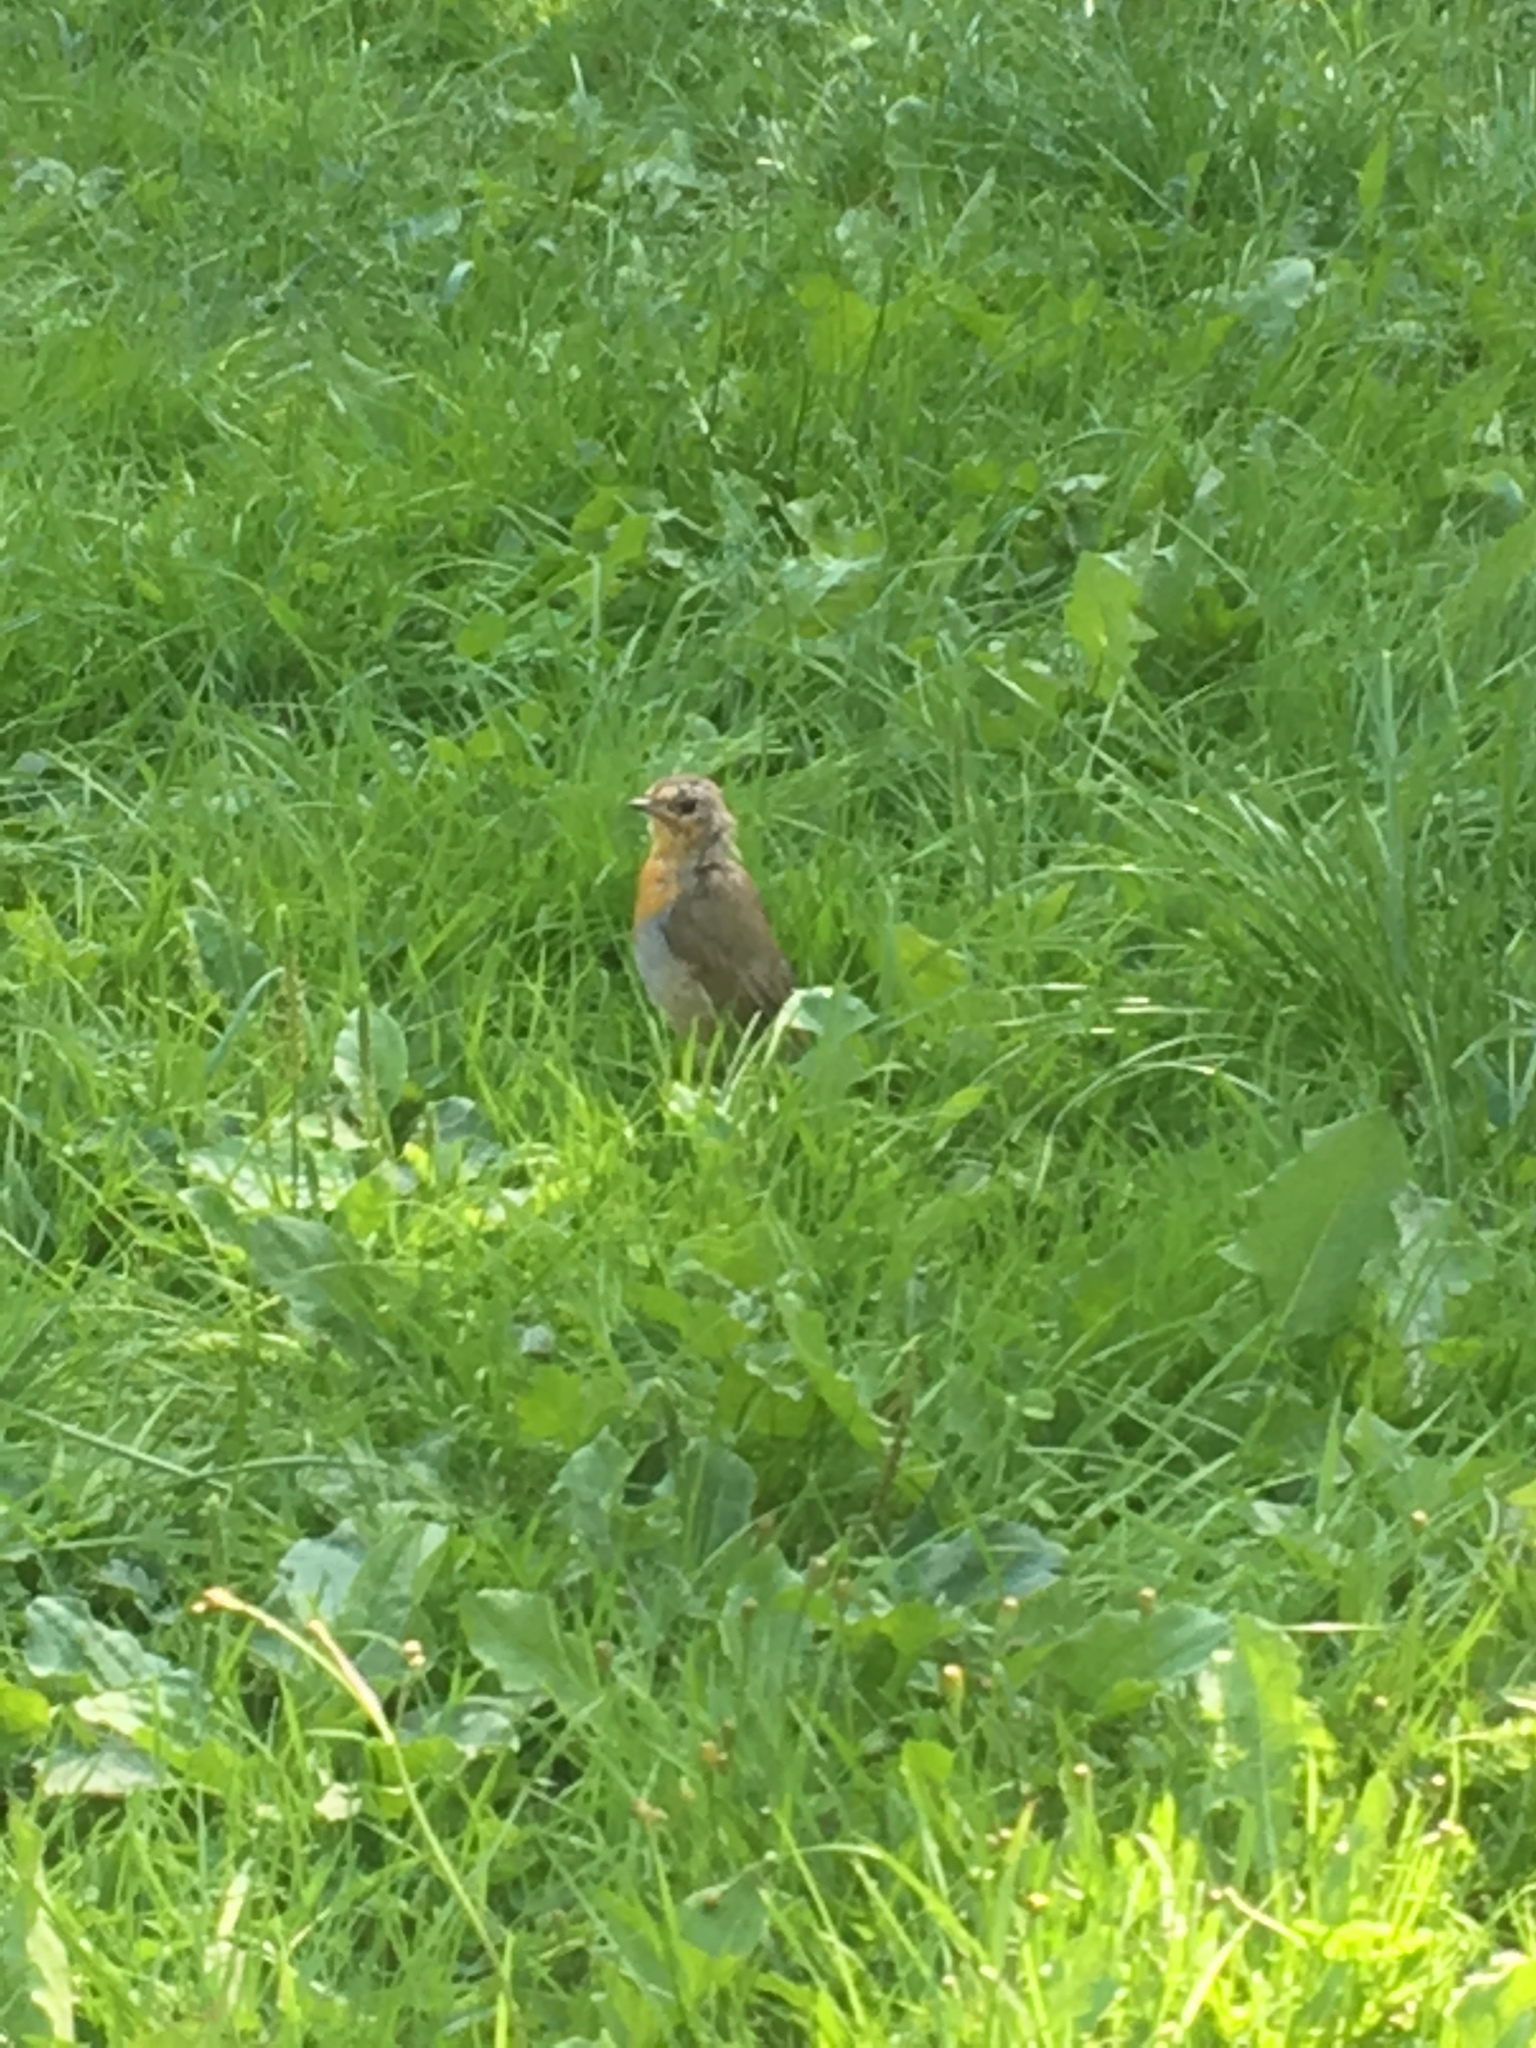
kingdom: Animalia
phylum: Chordata
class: Aves
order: Passeriformes
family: Muscicapidae
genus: Erithacus
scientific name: Erithacus rubecula
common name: European robin
